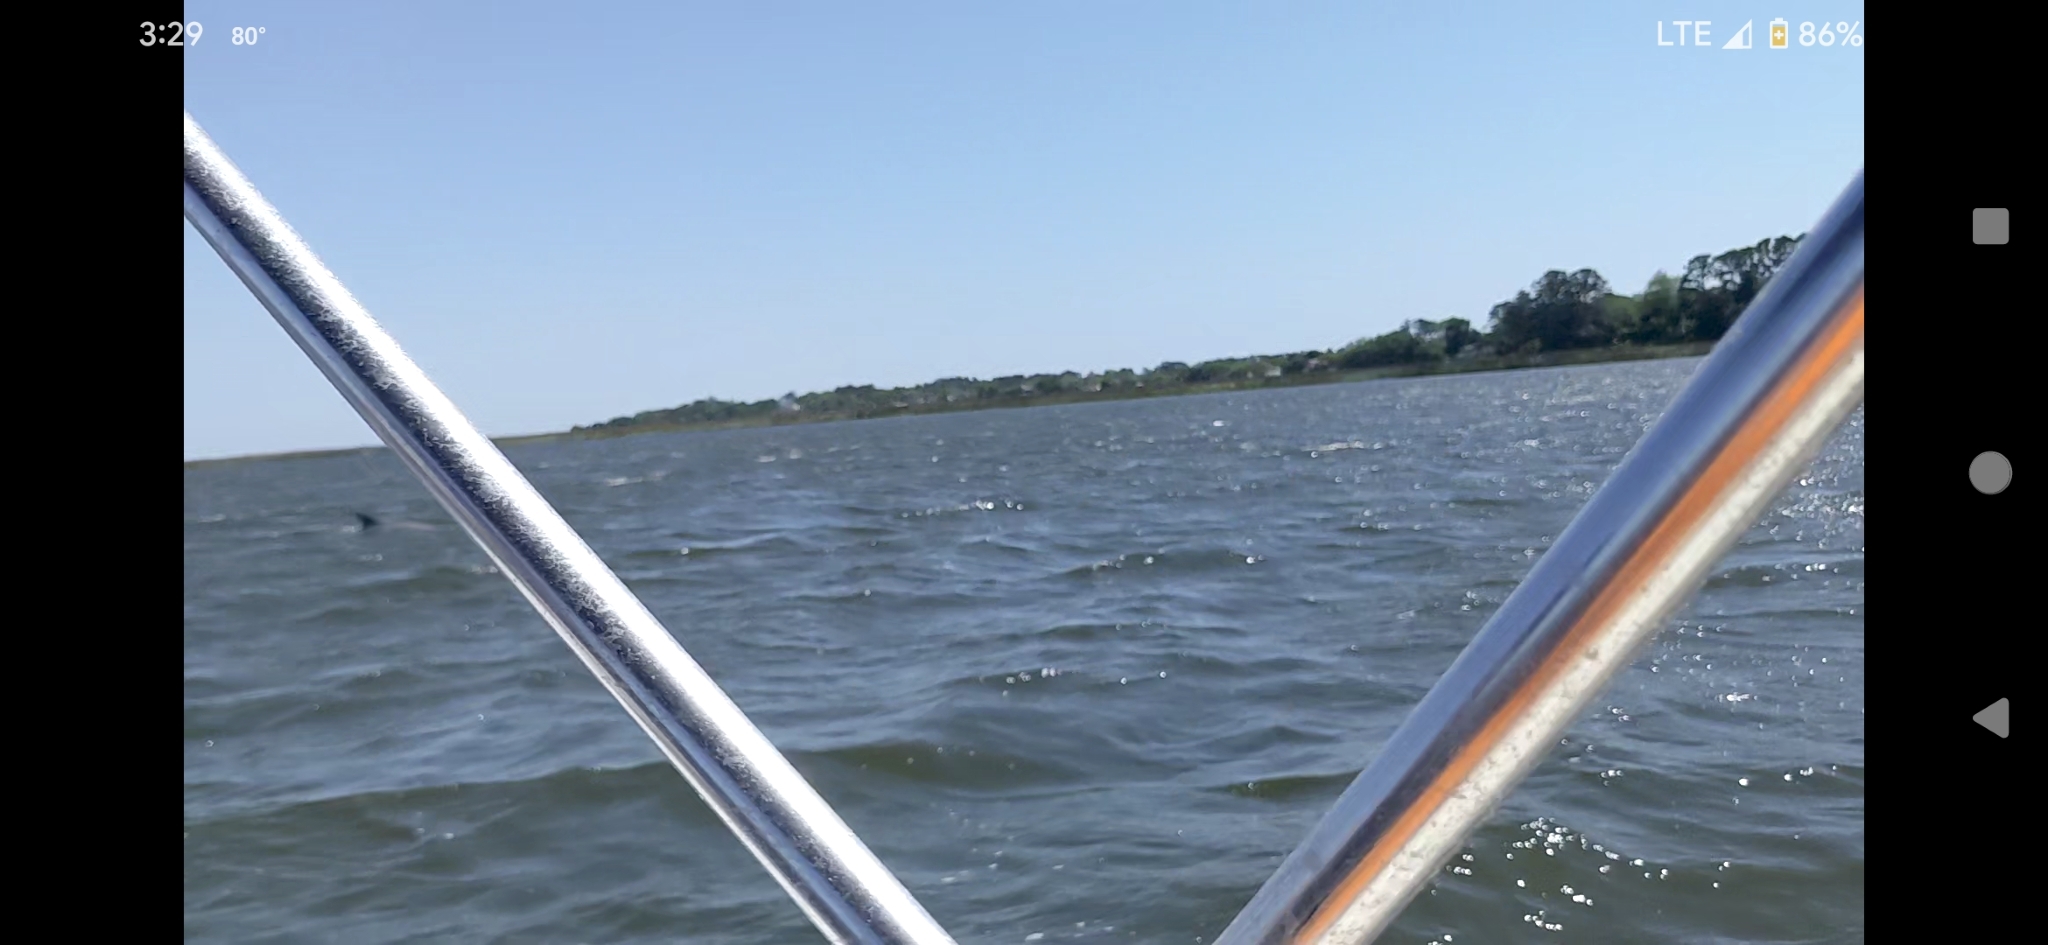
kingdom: Animalia
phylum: Chordata
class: Mammalia
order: Cetacea
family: Delphinidae
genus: Tursiops
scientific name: Tursiops truncatus
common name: Bottlenose dolphin
